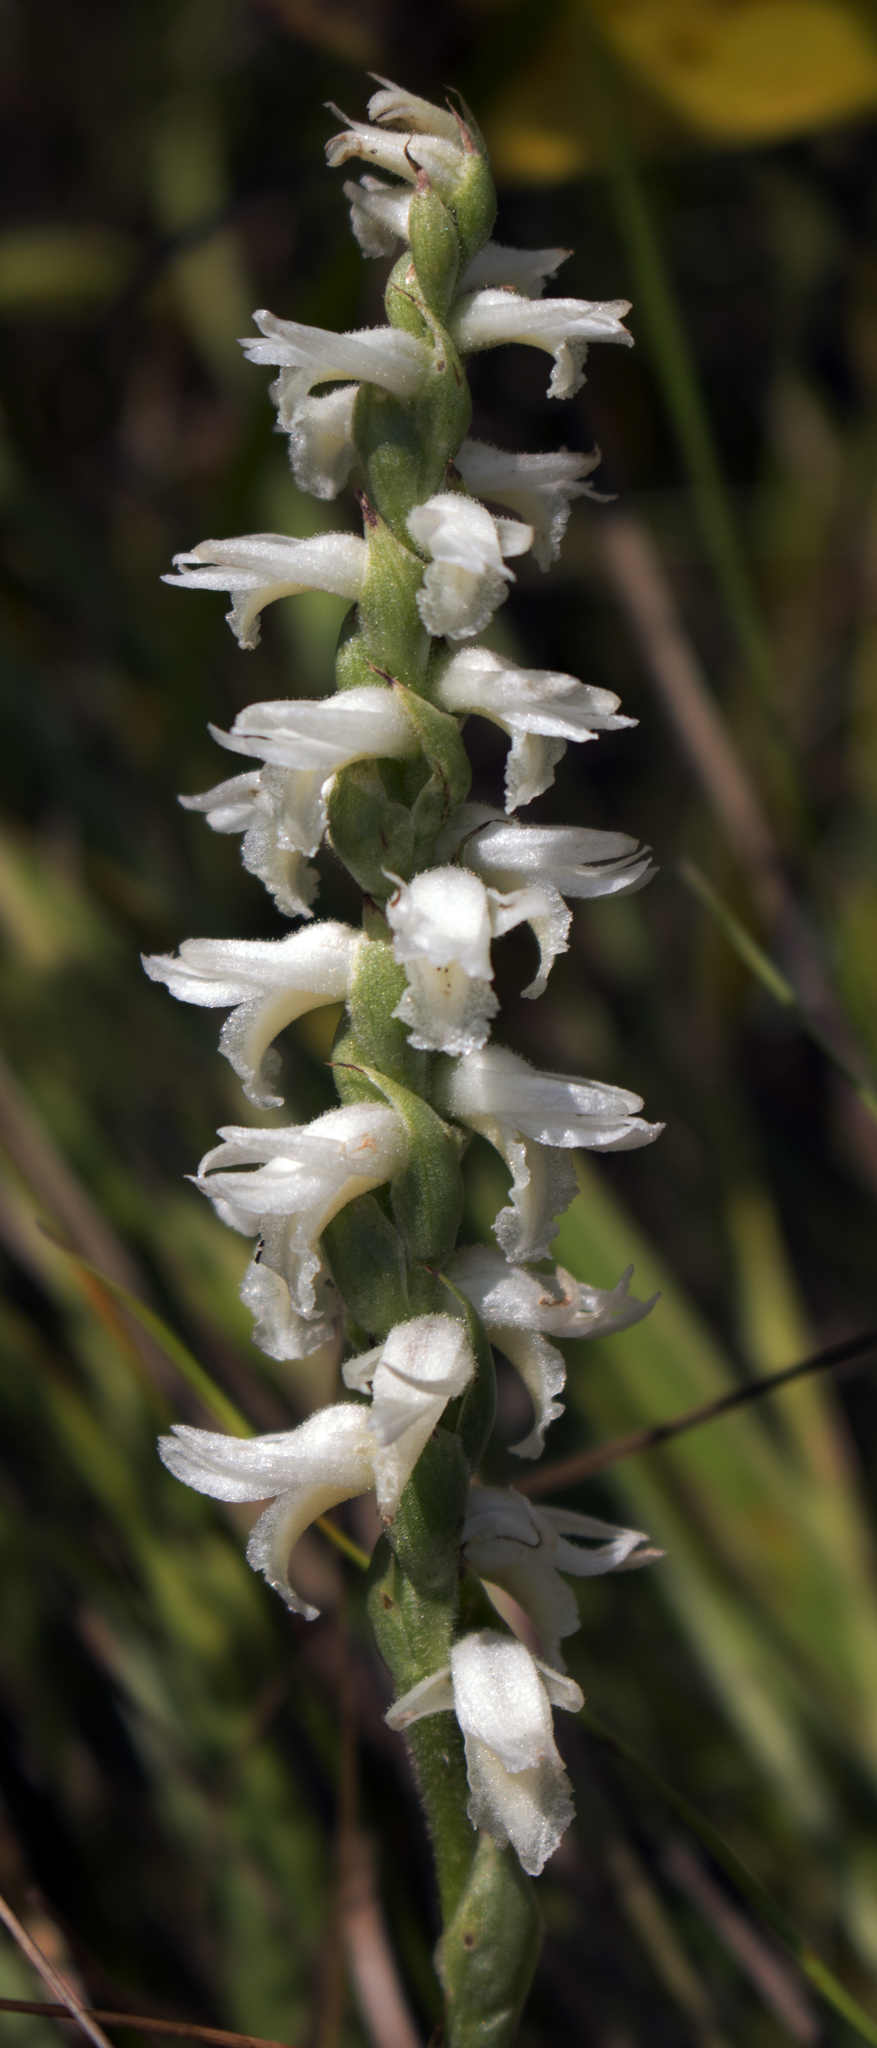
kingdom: Plantae
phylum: Tracheophyta
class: Liliopsida
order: Asparagales
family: Orchidaceae
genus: Spiranthes
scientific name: Spiranthes magnicamporum
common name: Great plains ladies'-tresses
